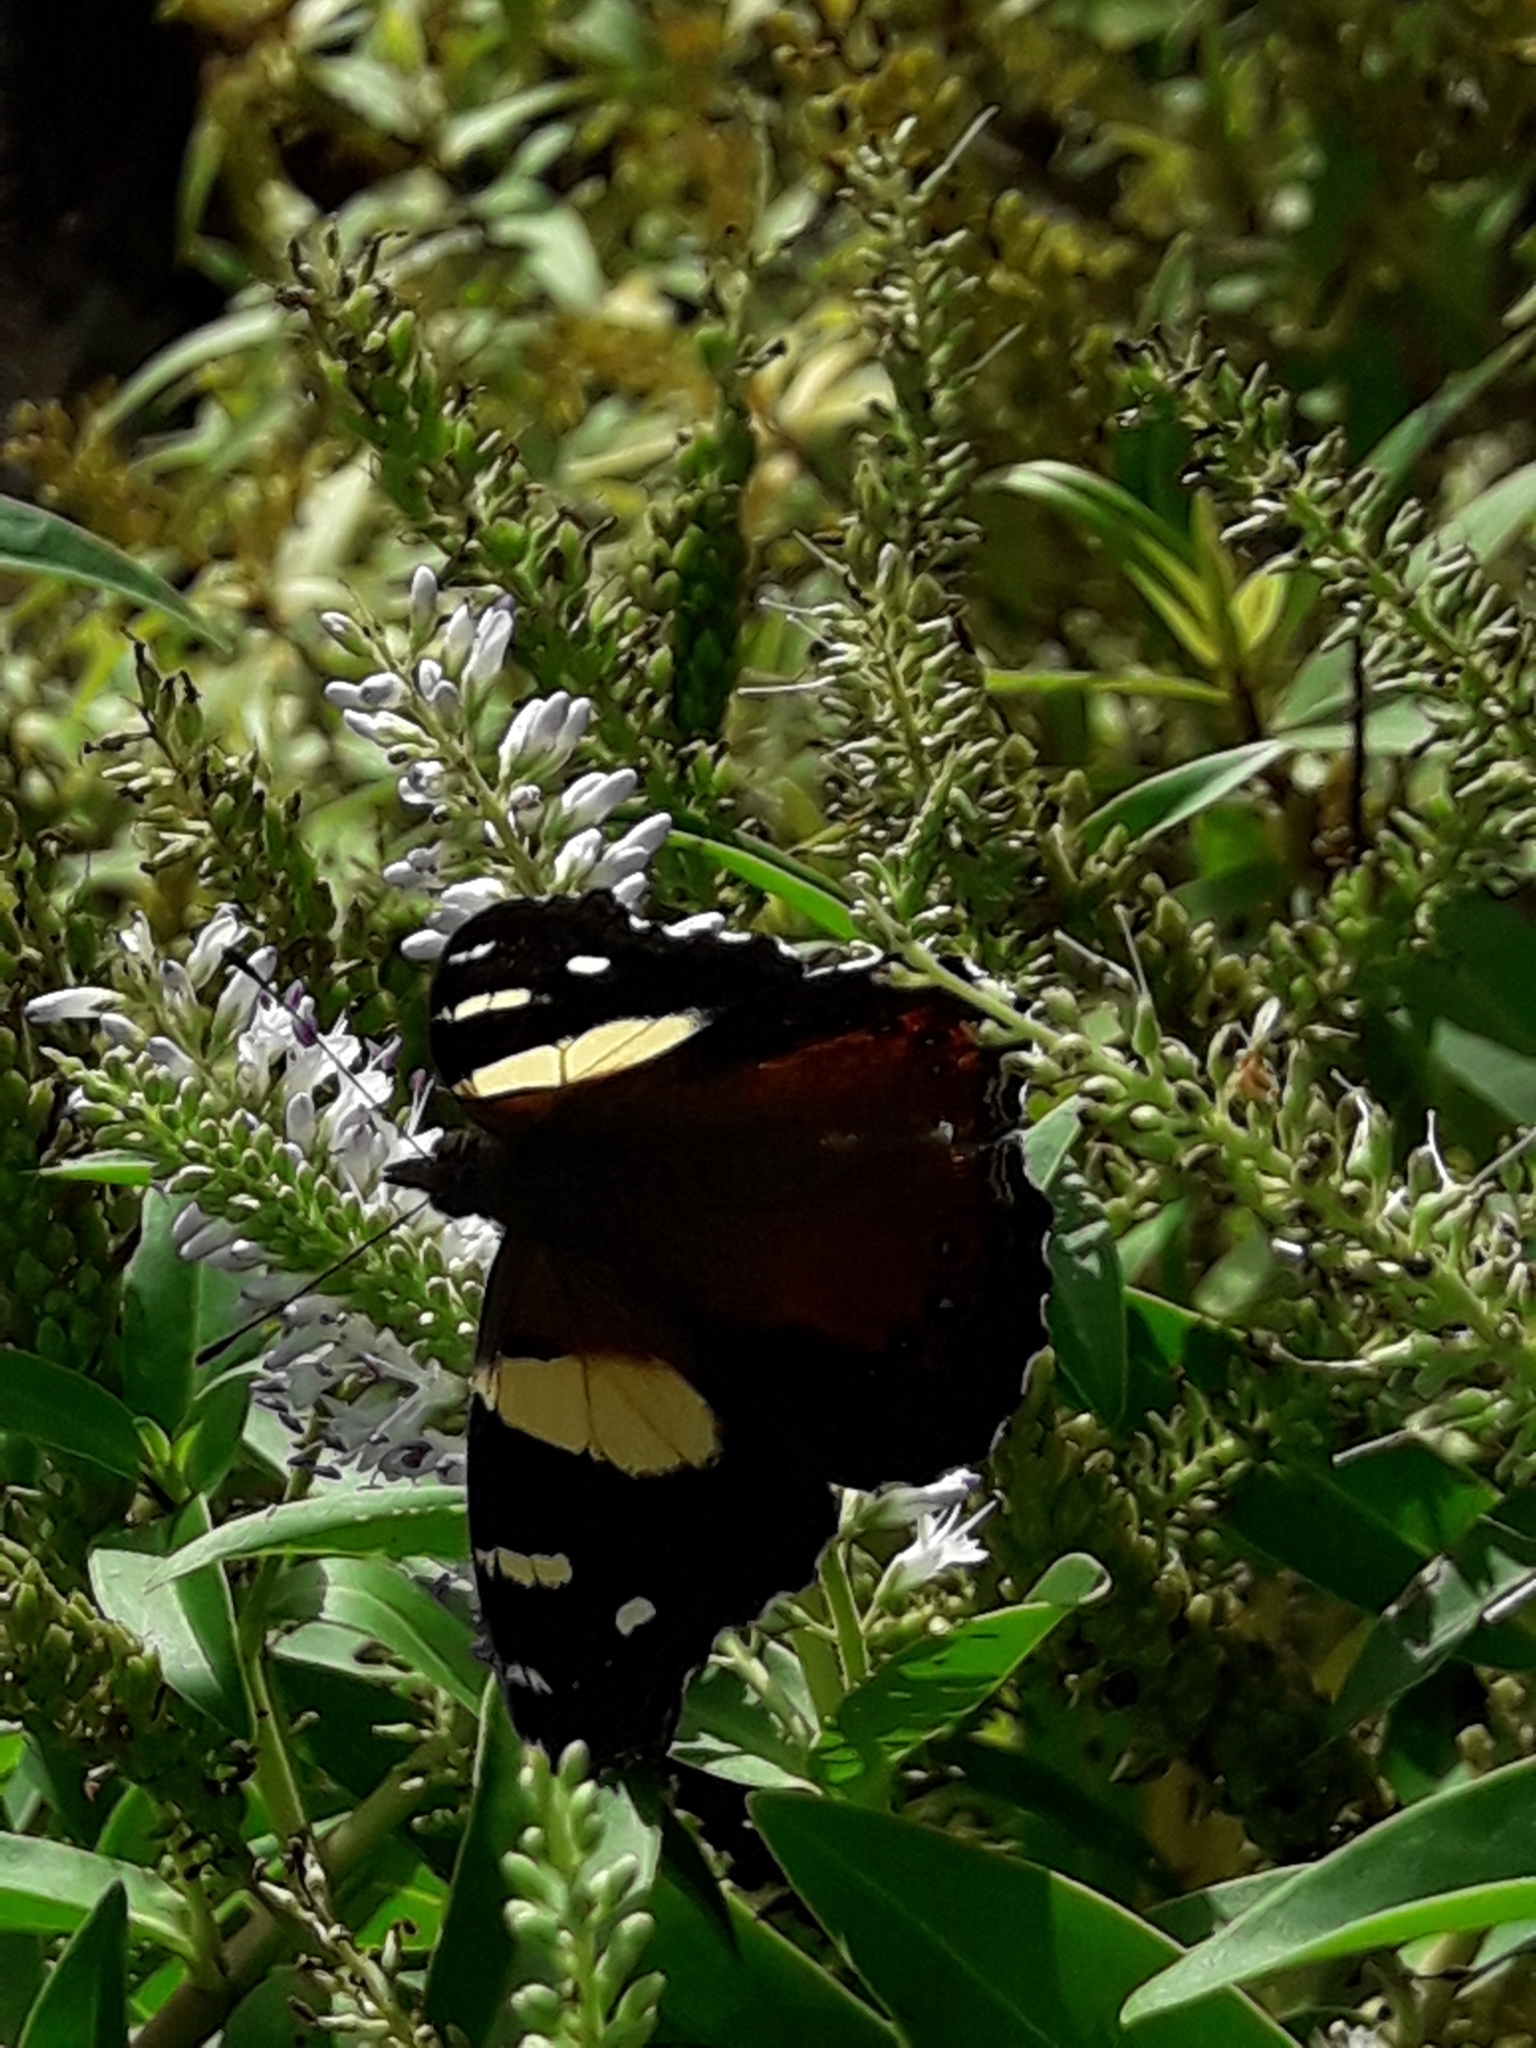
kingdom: Animalia
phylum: Arthropoda
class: Insecta
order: Lepidoptera
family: Nymphalidae
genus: Vanessa
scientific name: Vanessa itea
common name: Yellow admiral
